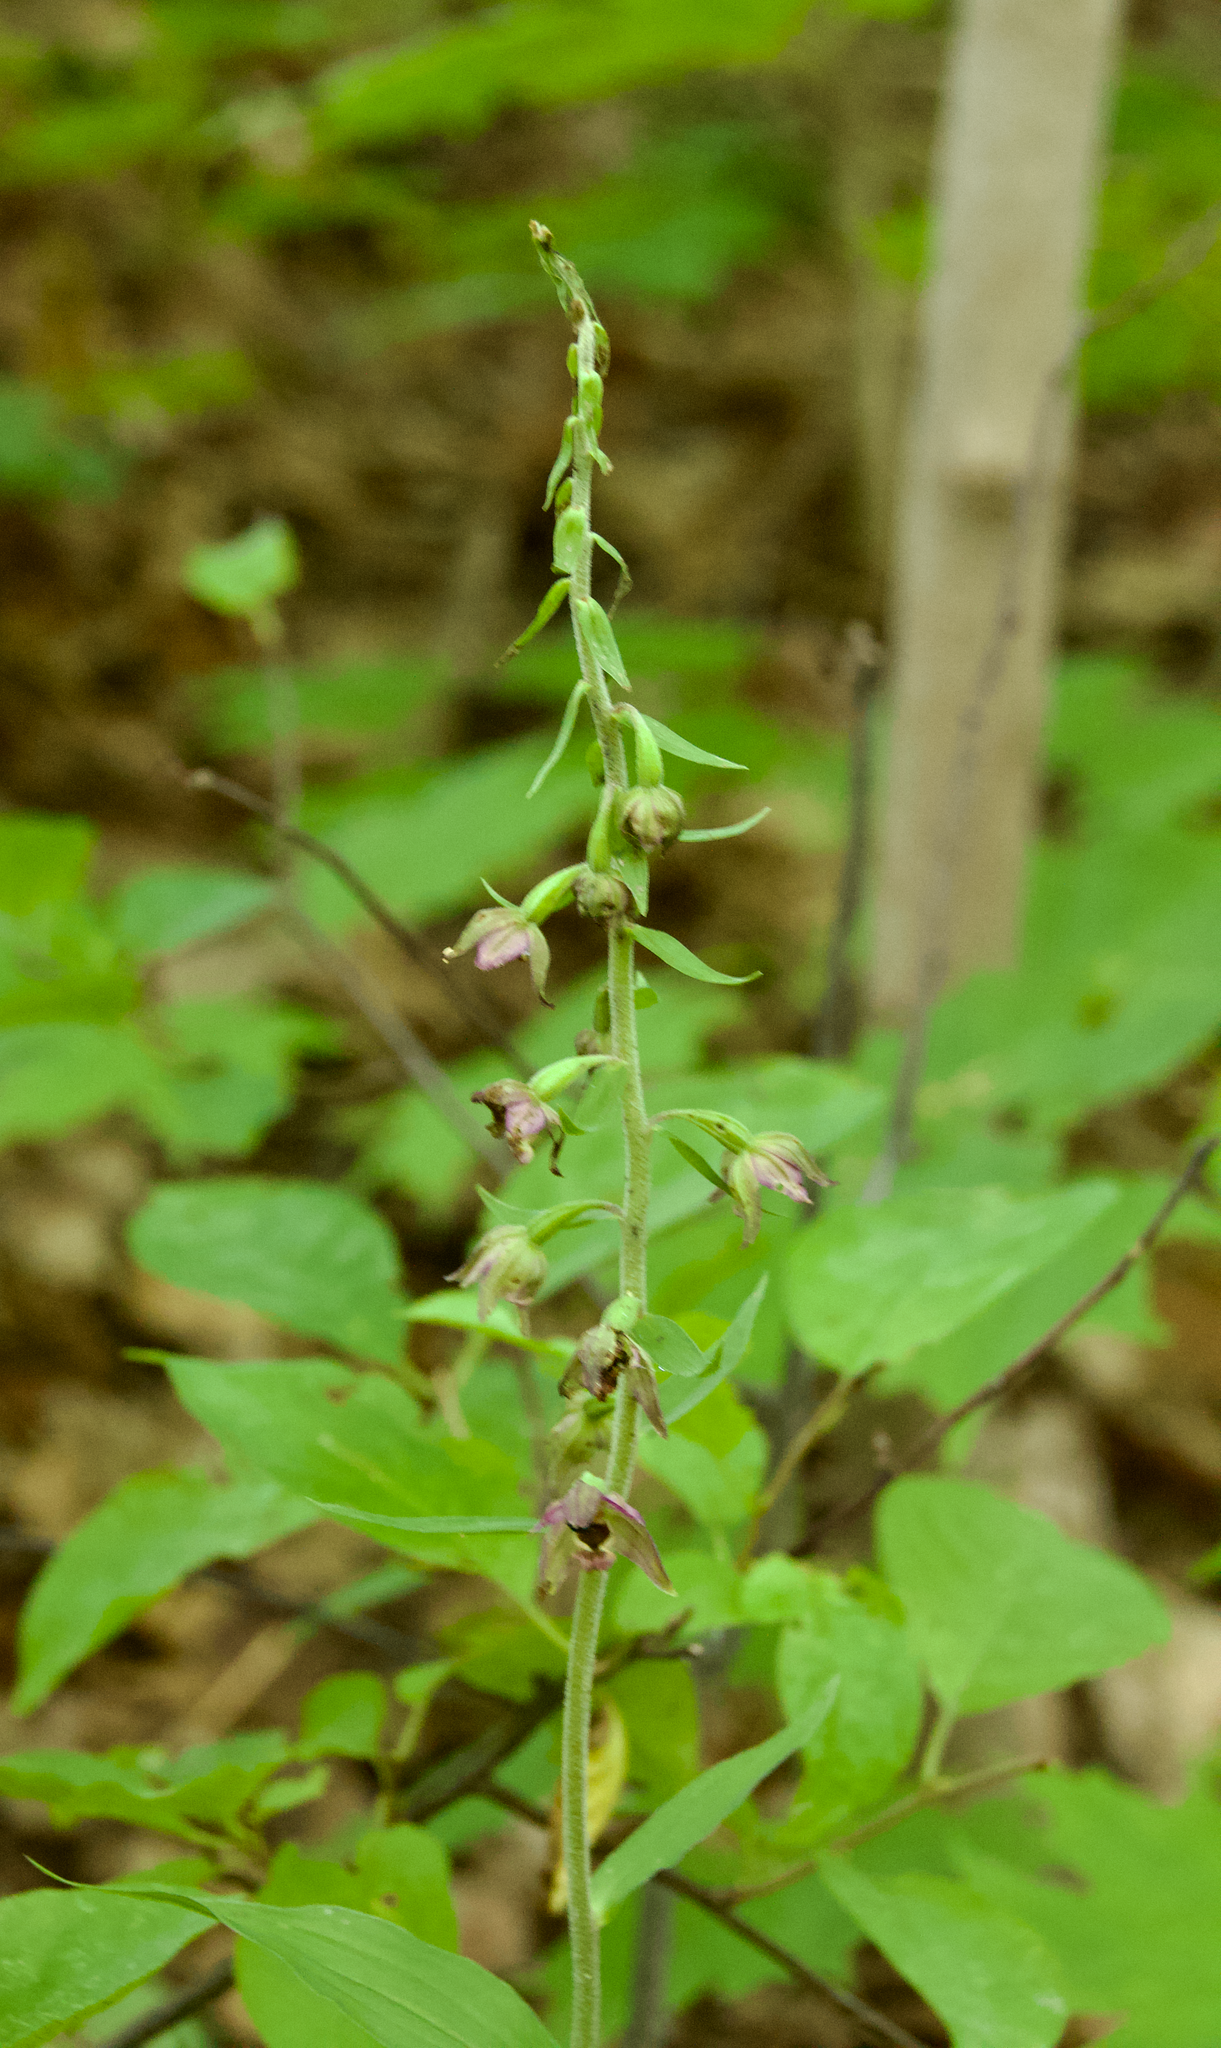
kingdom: Plantae
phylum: Tracheophyta
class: Liliopsida
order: Asparagales
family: Orchidaceae
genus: Epipactis
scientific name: Epipactis helleborine
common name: Broad-leaved helleborine
